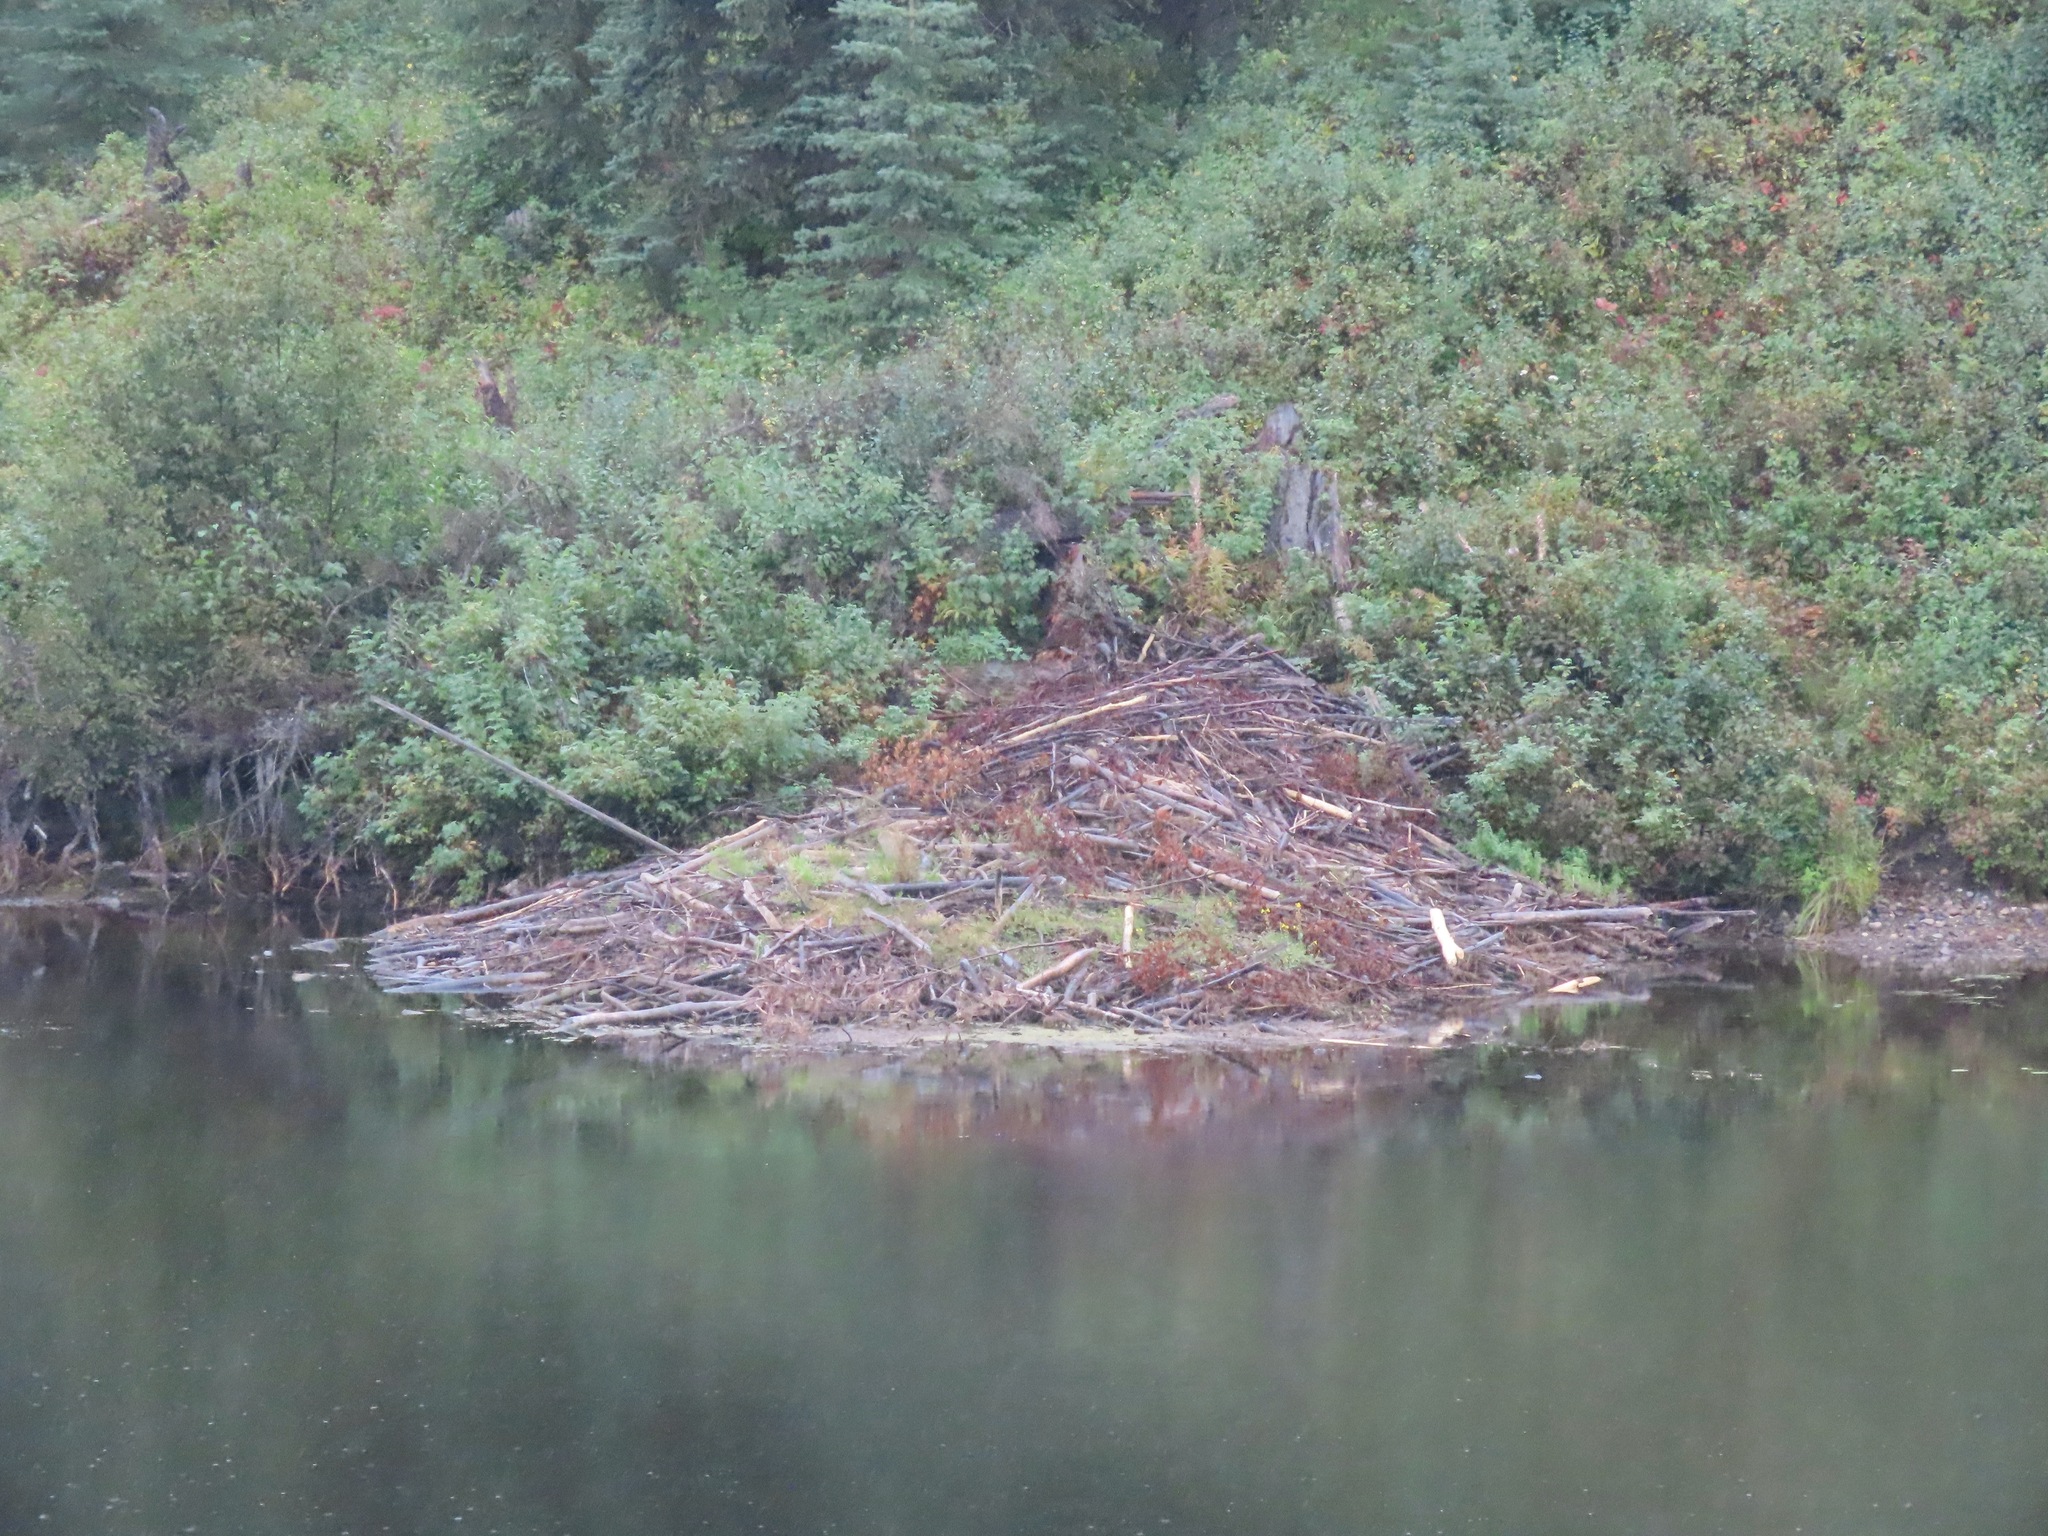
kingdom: Animalia
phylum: Chordata
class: Mammalia
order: Rodentia
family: Castoridae
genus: Castor
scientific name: Castor canadensis
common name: American beaver
